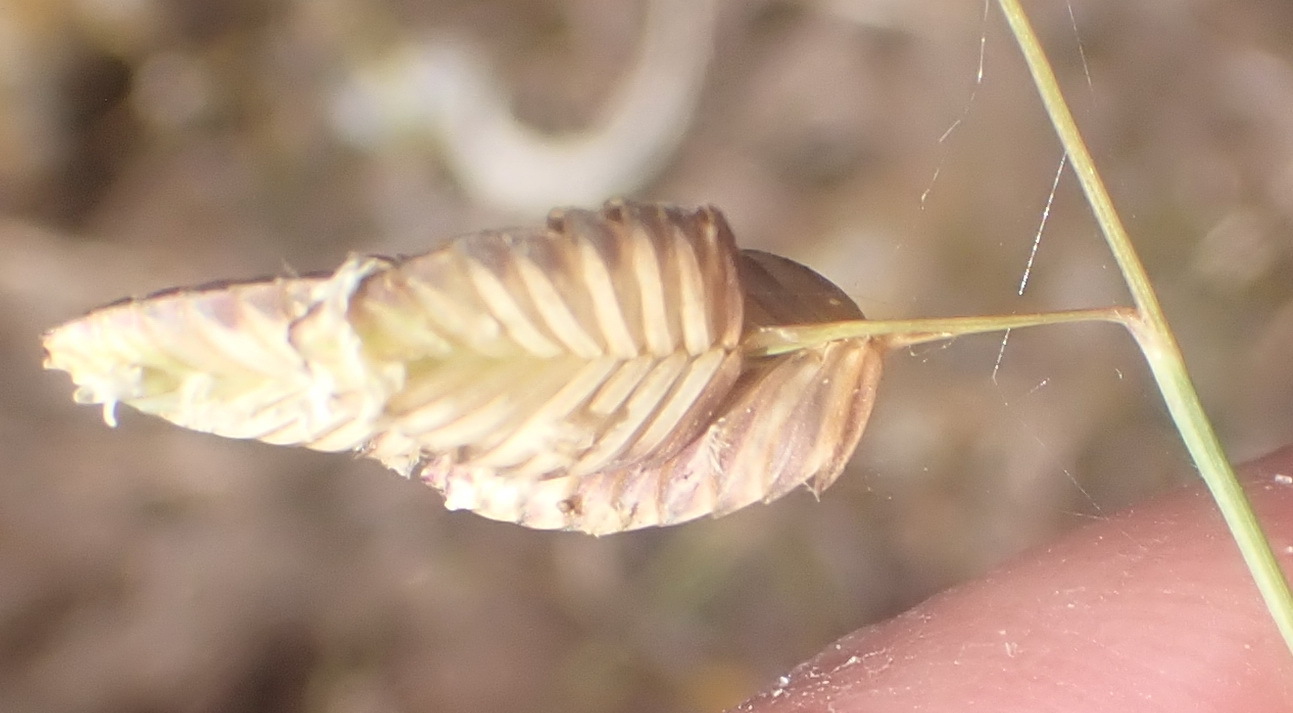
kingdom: Plantae
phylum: Tracheophyta
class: Liliopsida
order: Poales
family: Poaceae
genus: Eragrostis
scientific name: Eragrostis capensis
